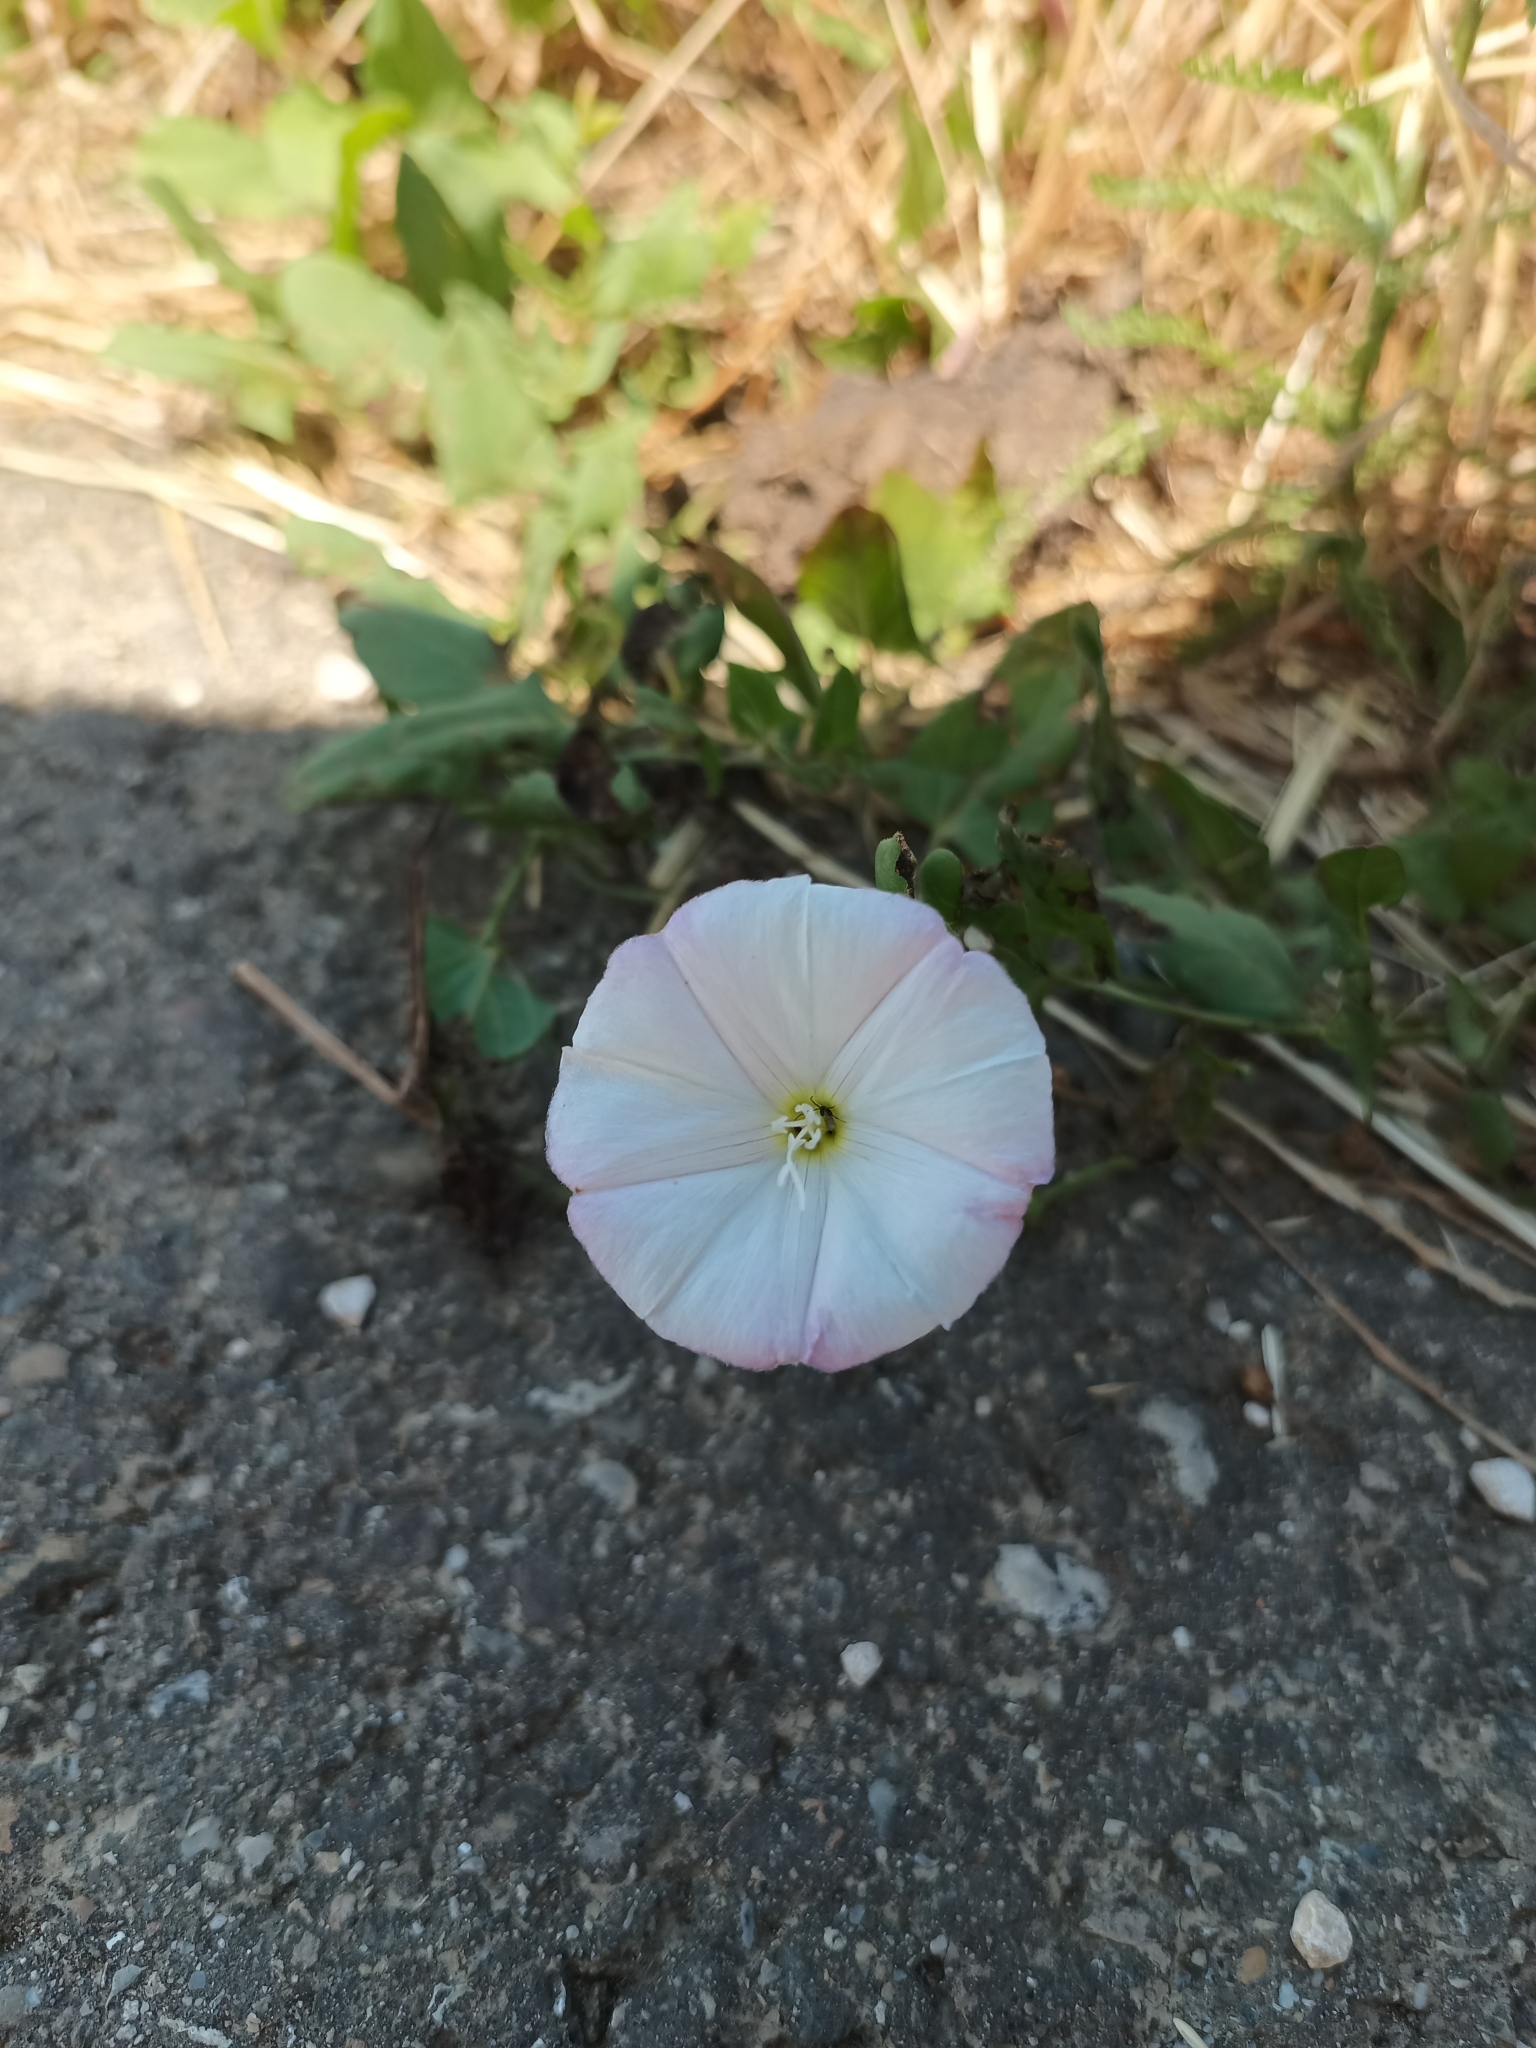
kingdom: Plantae
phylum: Tracheophyta
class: Magnoliopsida
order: Solanales
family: Convolvulaceae
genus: Convolvulus
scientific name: Convolvulus arvensis
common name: Field bindweed
